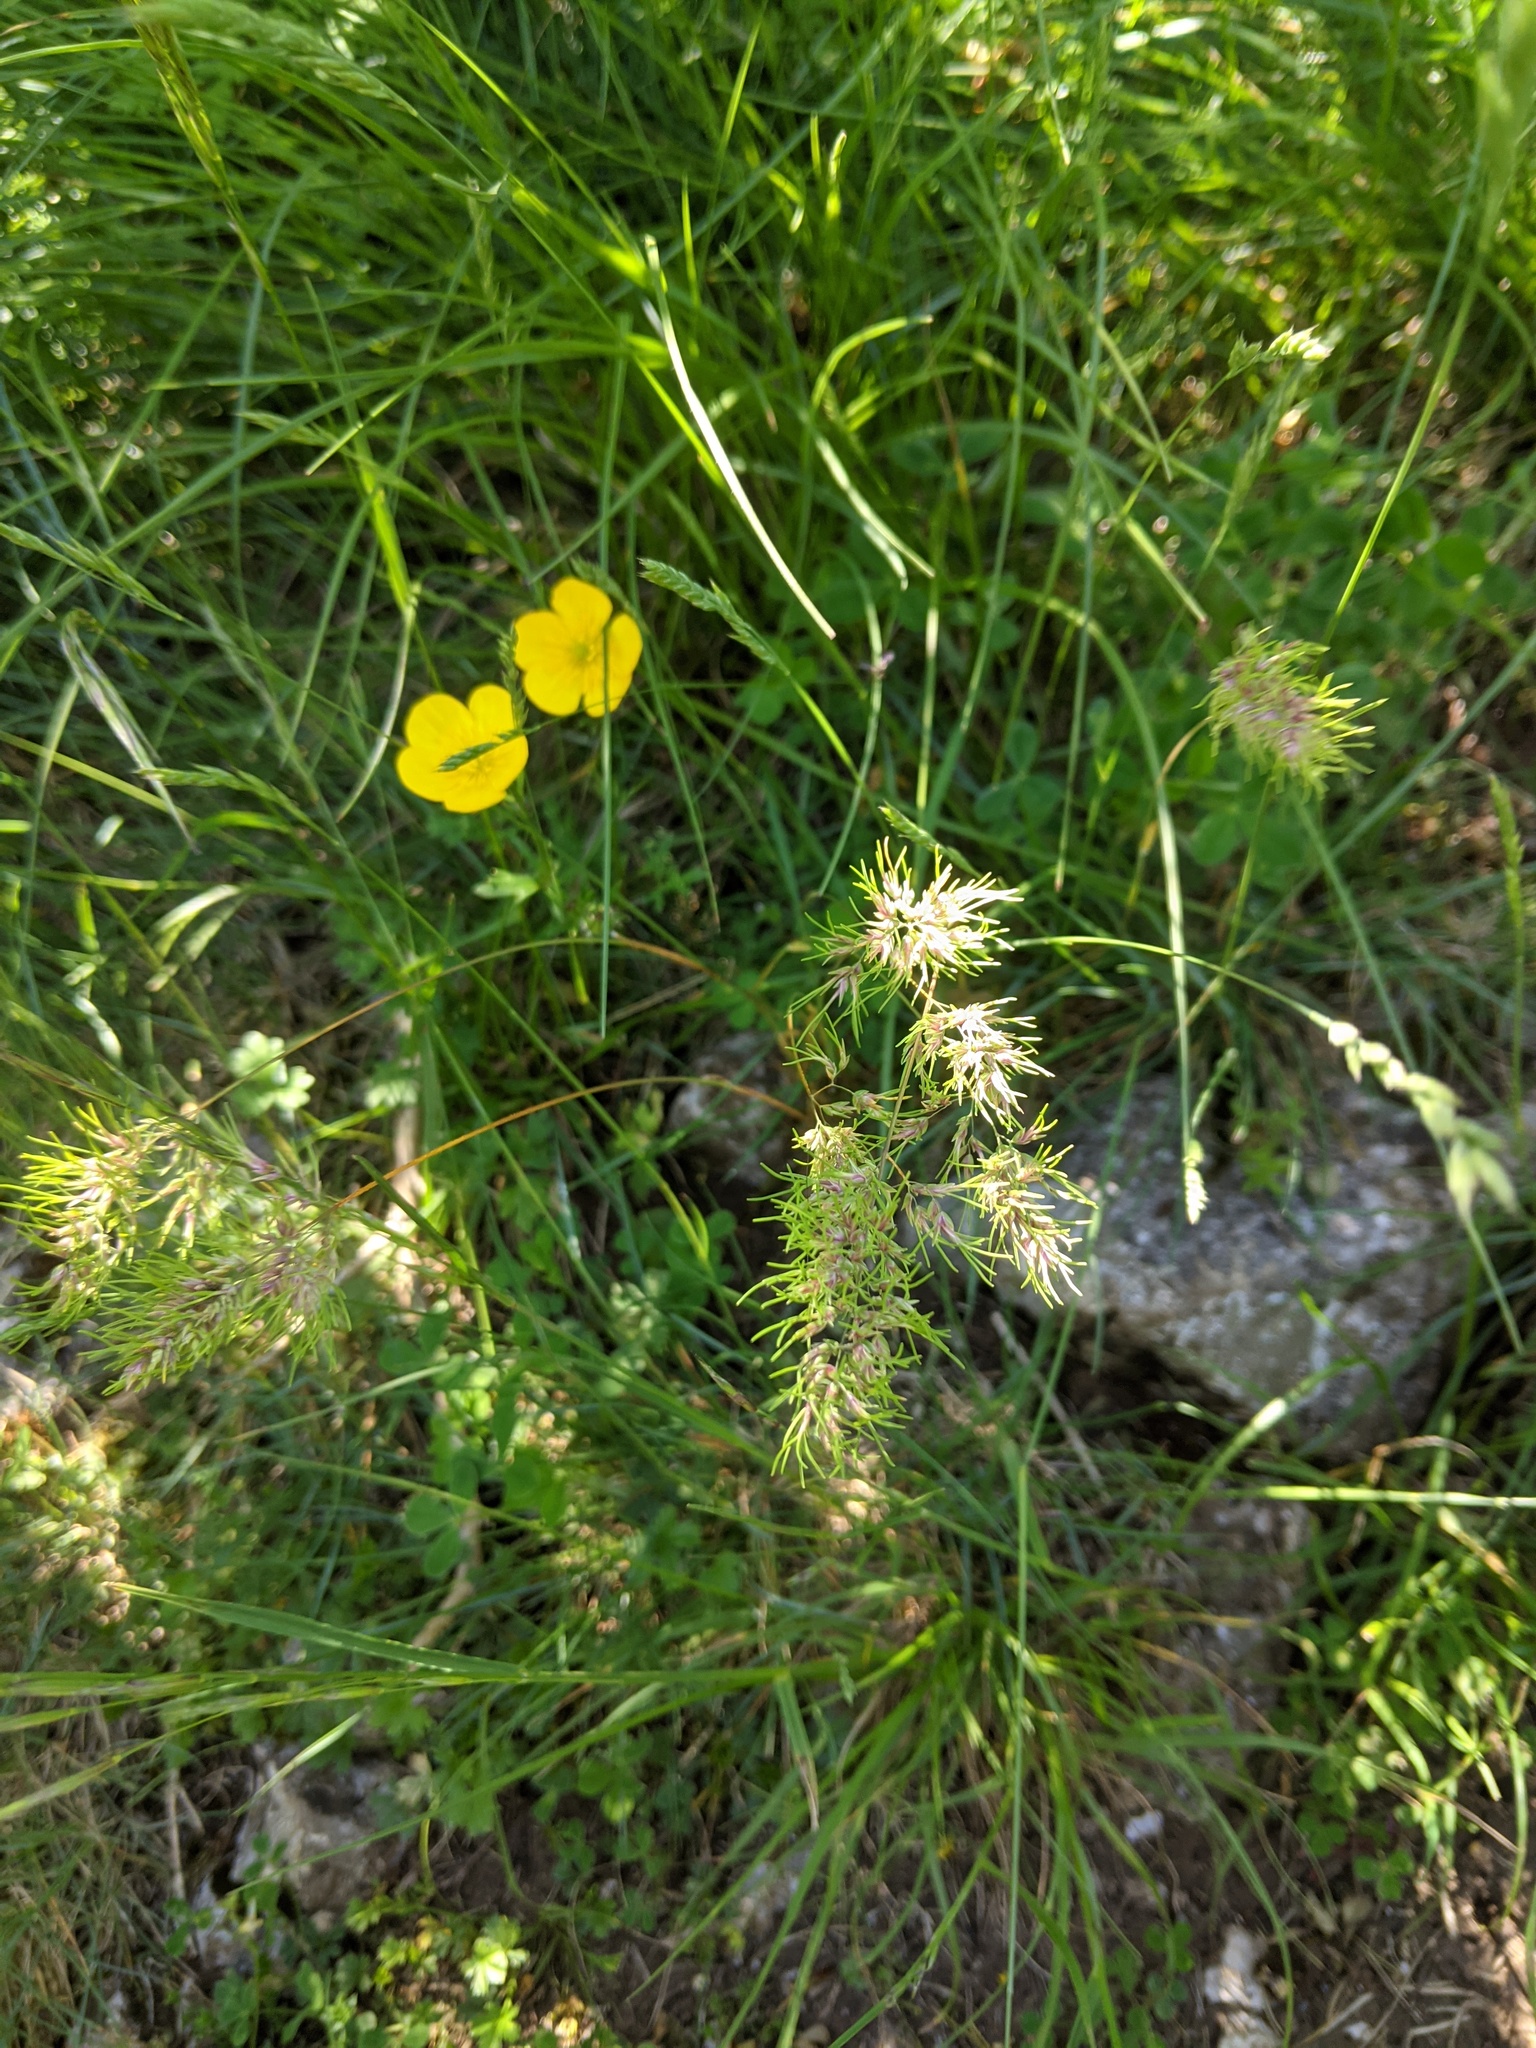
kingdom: Plantae
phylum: Tracheophyta
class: Liliopsida
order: Poales
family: Poaceae
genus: Poa
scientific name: Poa bulbosa
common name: Bulbous bluegrass
